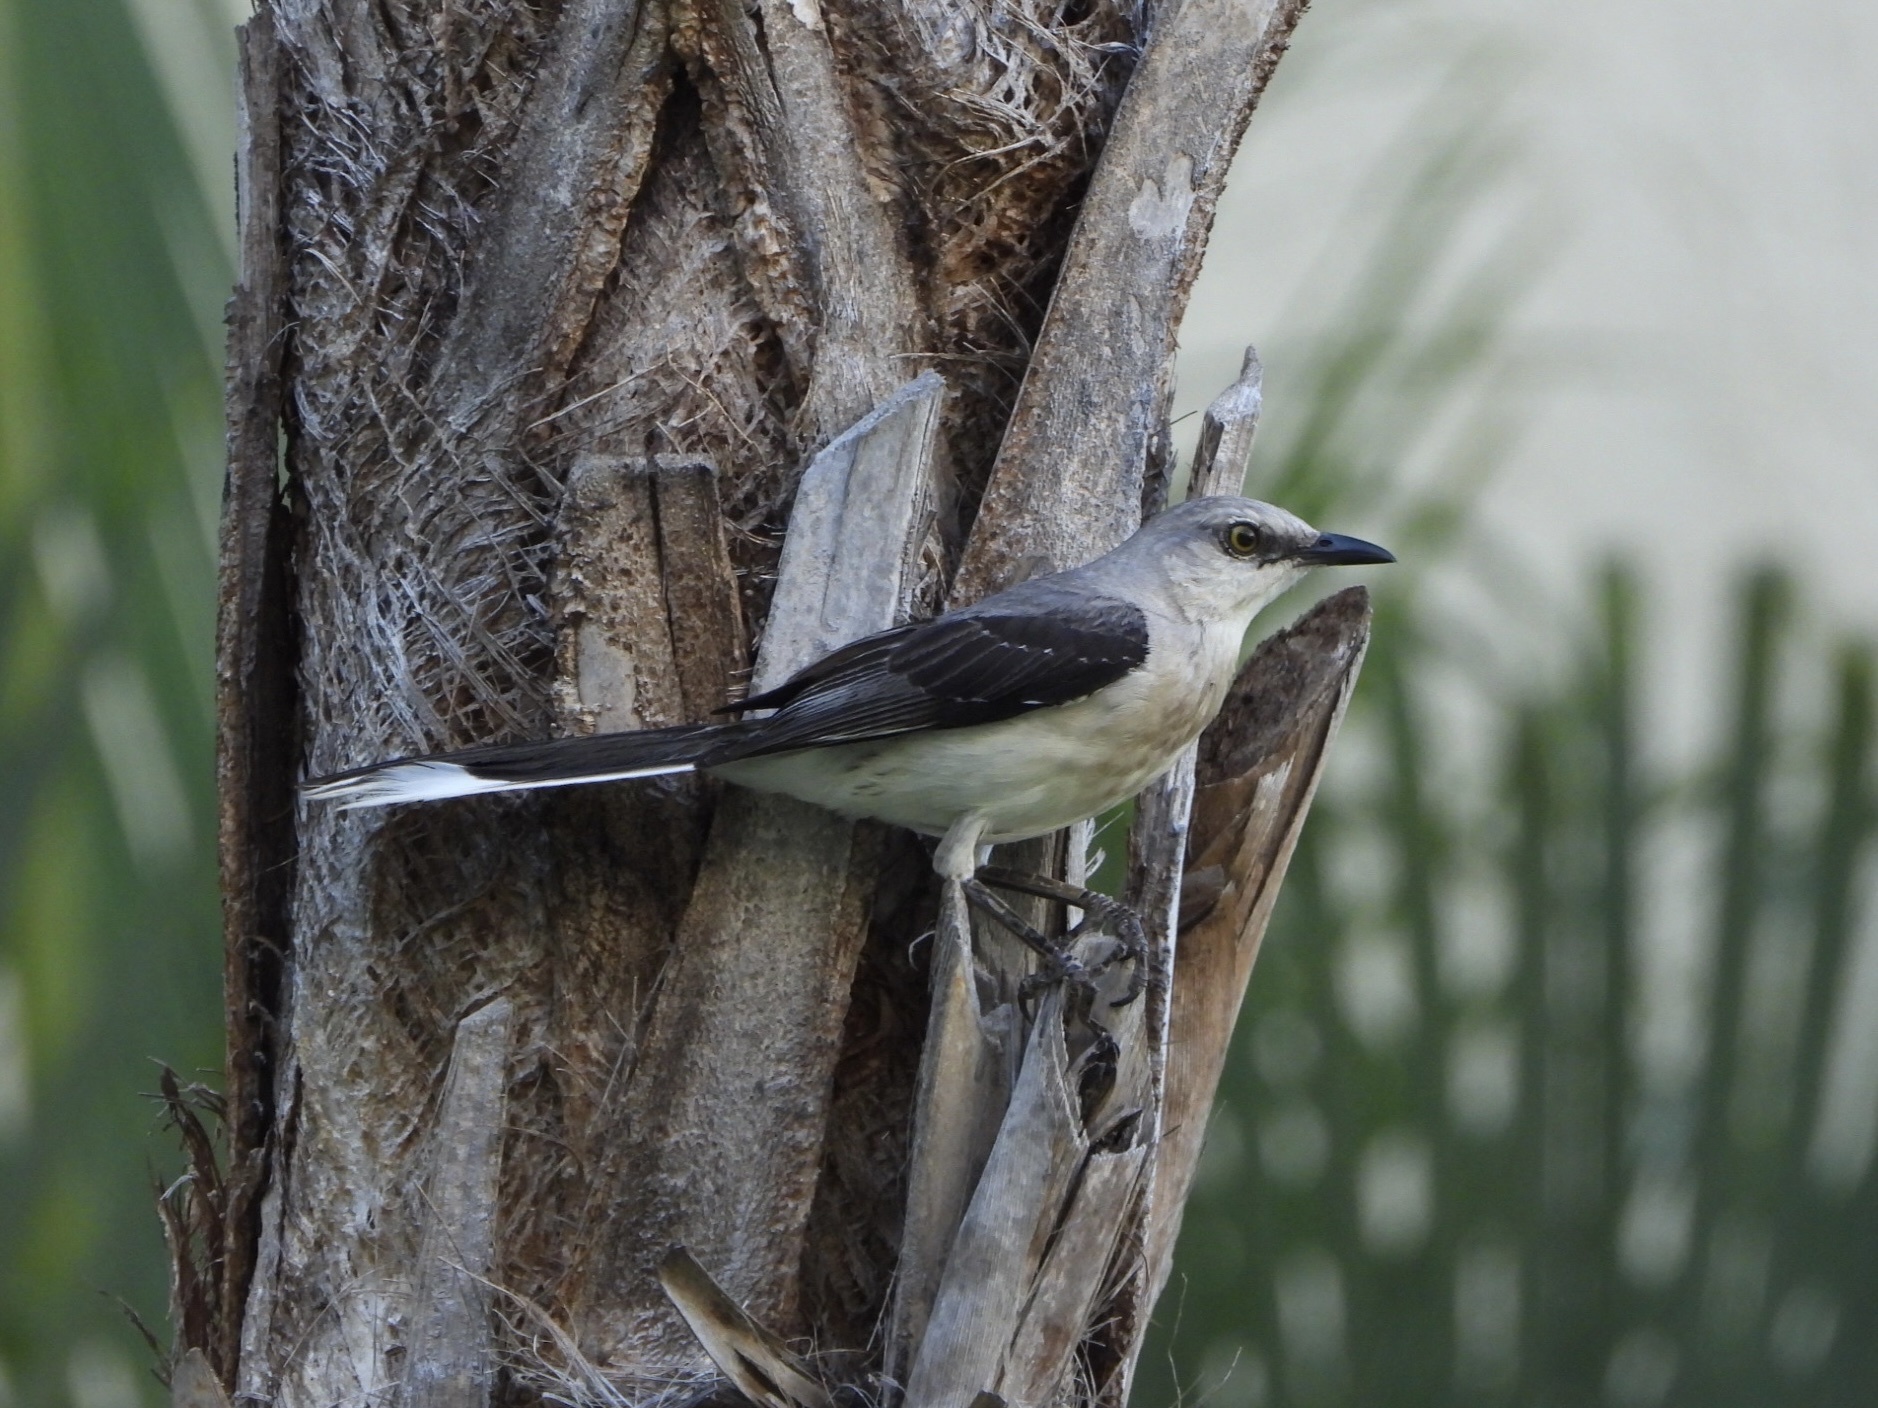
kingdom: Animalia
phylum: Chordata
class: Aves
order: Passeriformes
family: Mimidae
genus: Mimus
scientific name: Mimus gilvus
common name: Tropical mockingbird
